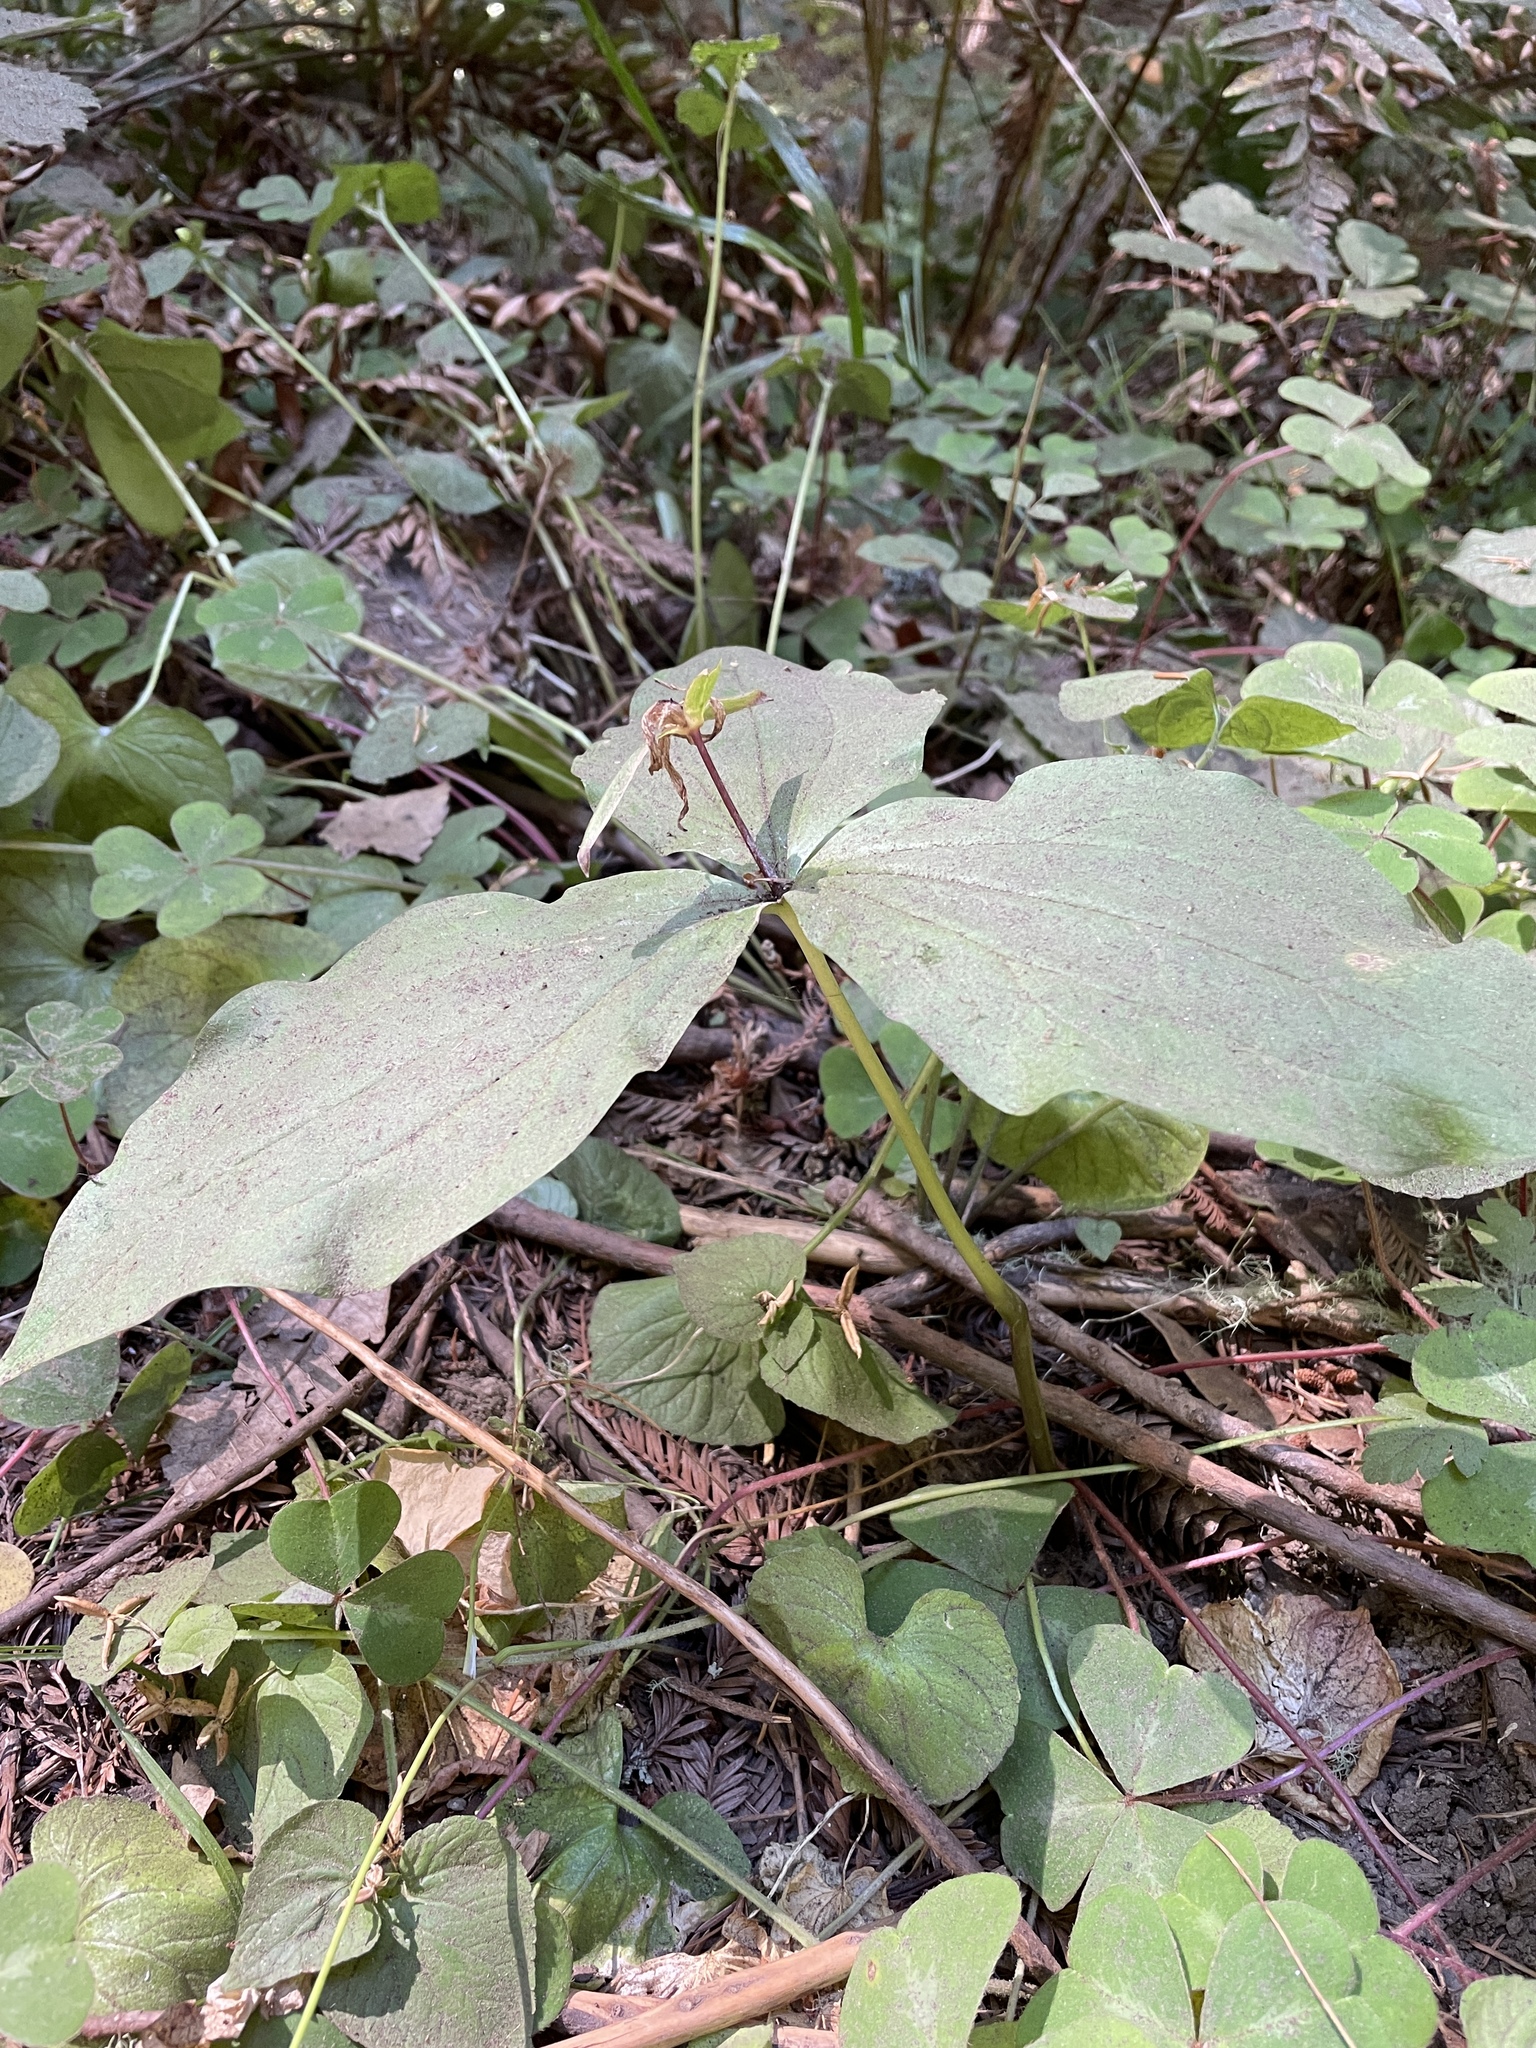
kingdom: Plantae
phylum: Tracheophyta
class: Liliopsida
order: Liliales
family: Melanthiaceae
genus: Trillium
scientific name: Trillium ovatum
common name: Pacific trillium
